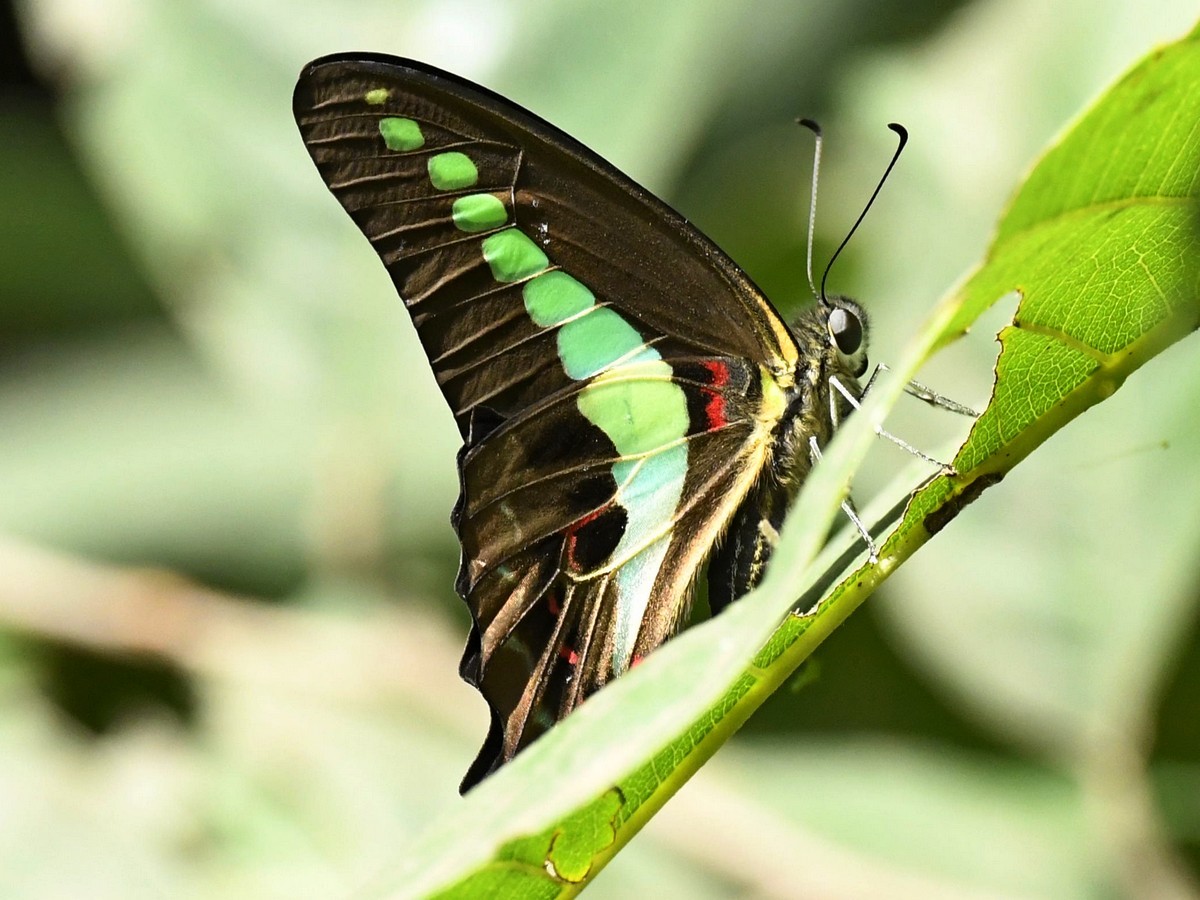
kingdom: Animalia
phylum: Arthropoda
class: Insecta
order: Lepidoptera
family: Papilionidae
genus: Graphium
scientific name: Graphium
